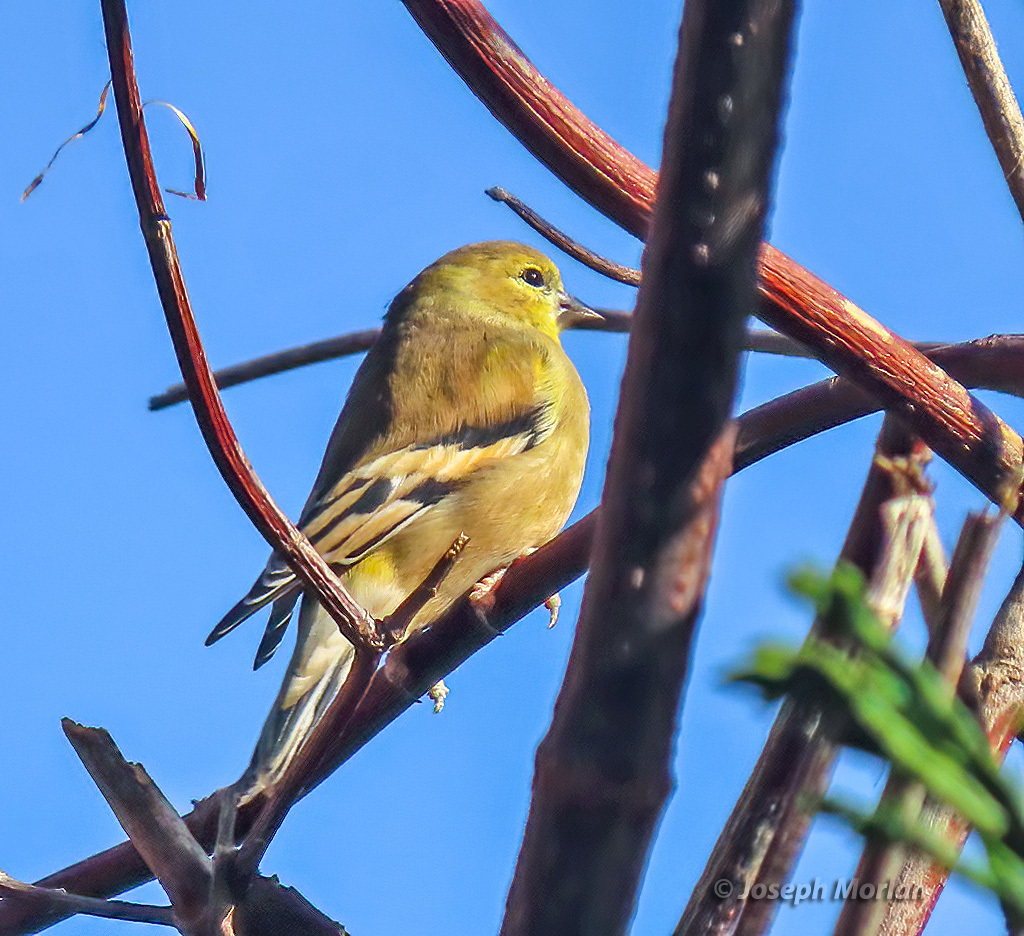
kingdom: Animalia
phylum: Chordata
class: Aves
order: Passeriformes
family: Fringillidae
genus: Spinus
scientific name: Spinus tristis
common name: American goldfinch
